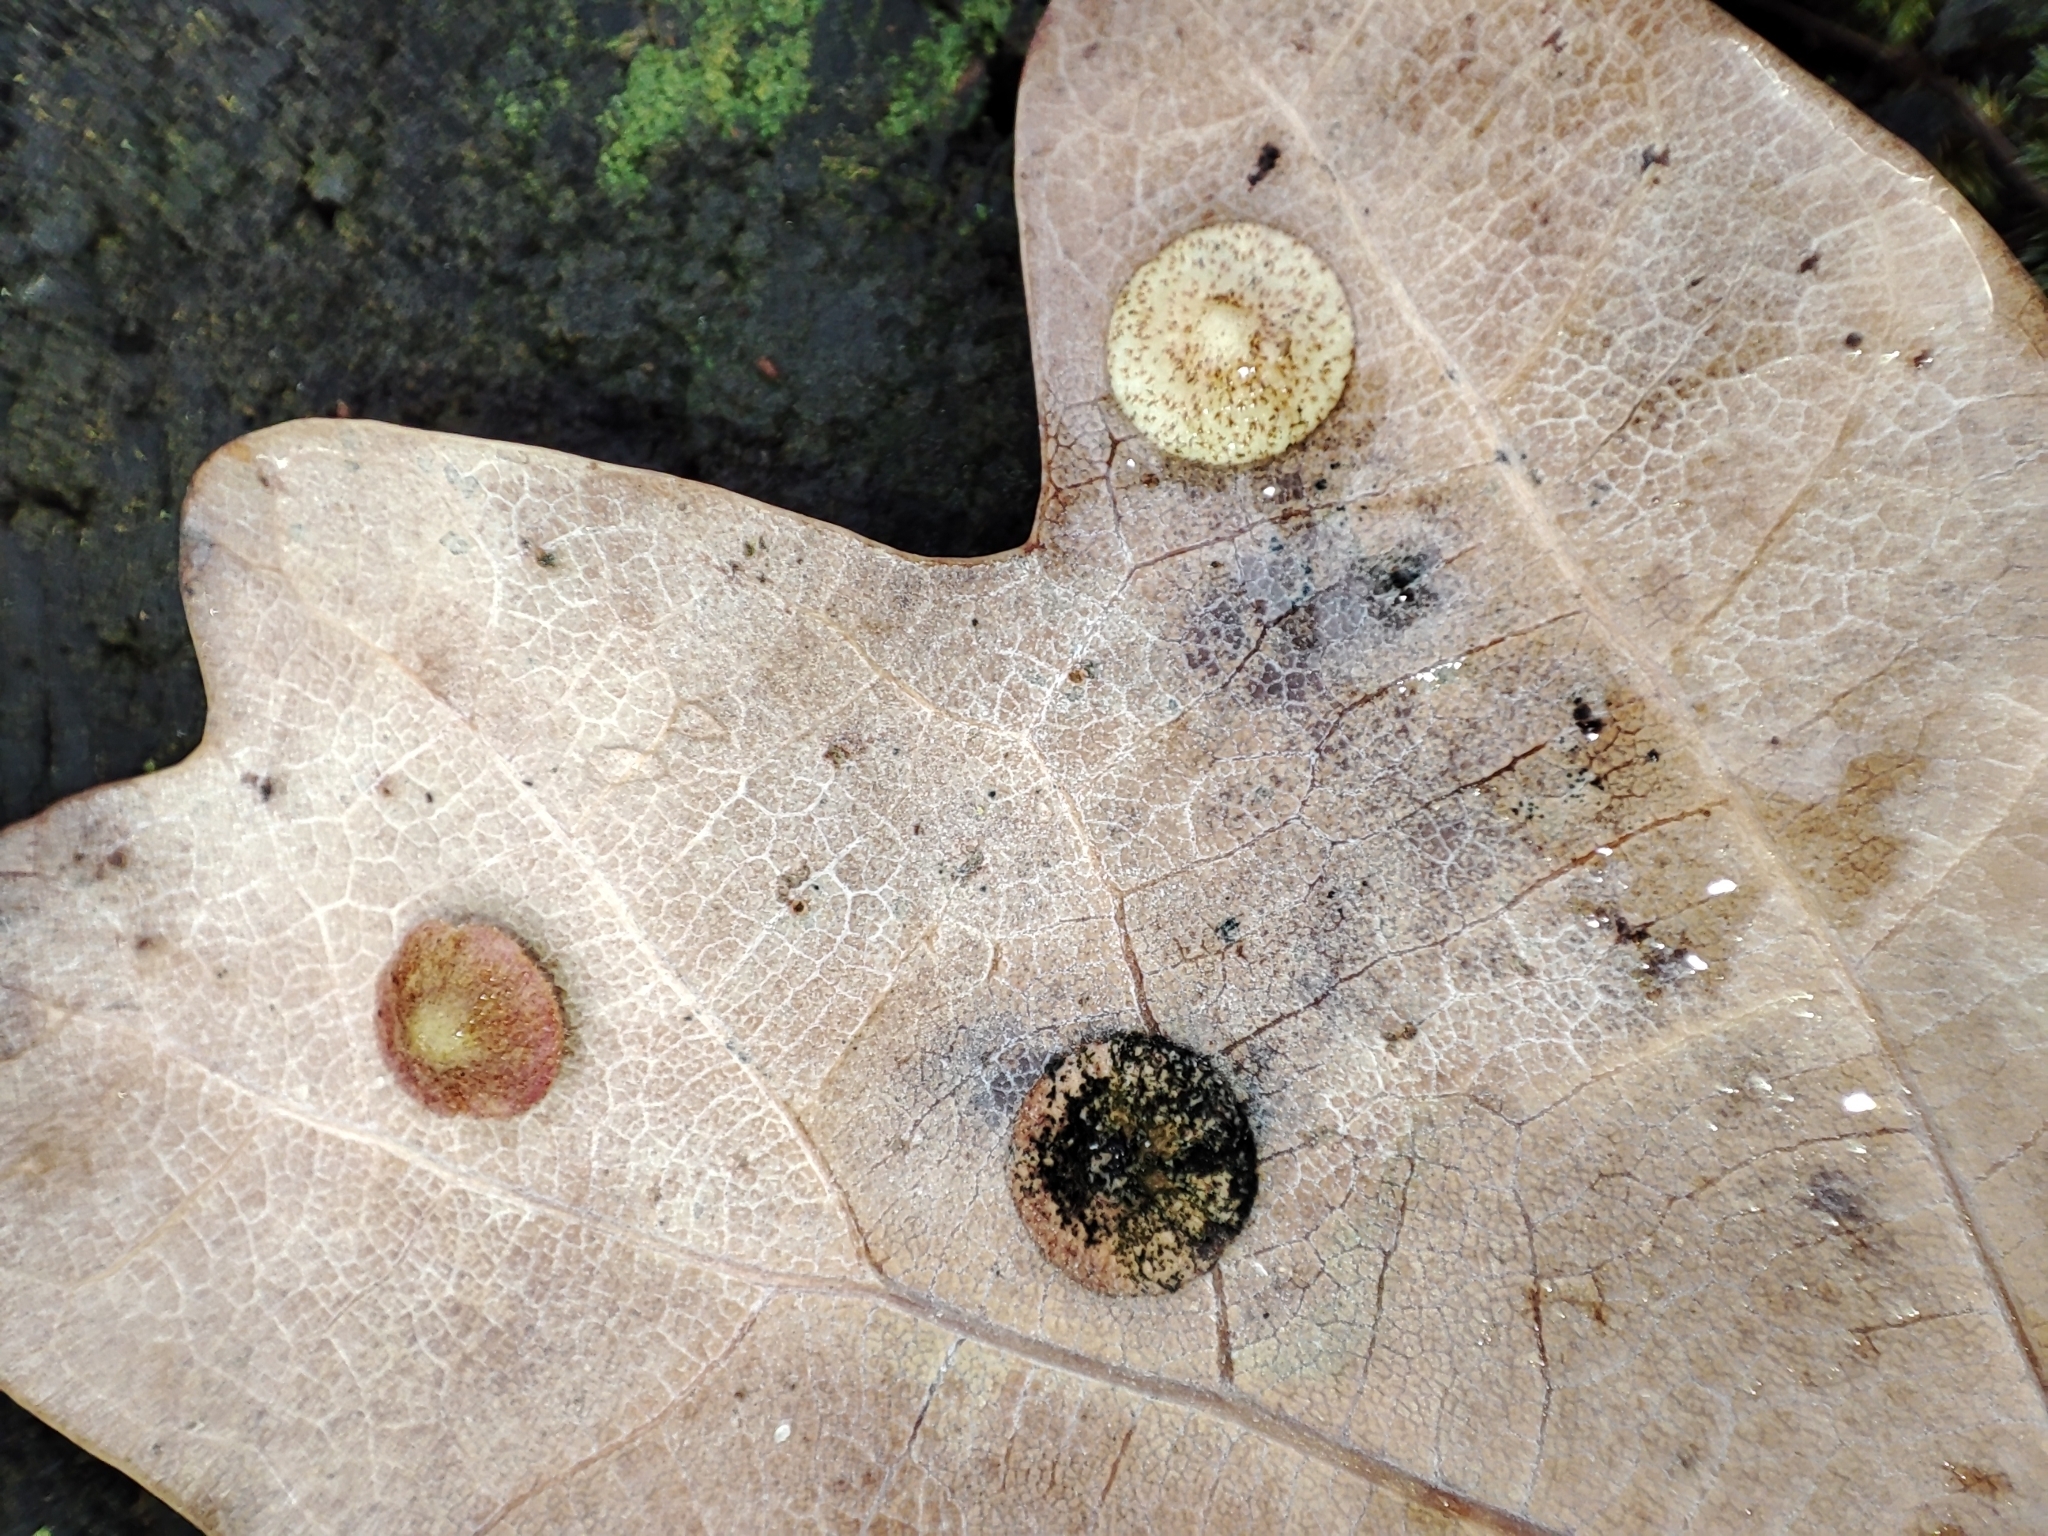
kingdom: Animalia
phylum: Arthropoda
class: Insecta
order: Hymenoptera
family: Cynipidae
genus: Neuroterus
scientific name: Neuroterus quercusbaccarum
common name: Common spangle gall
